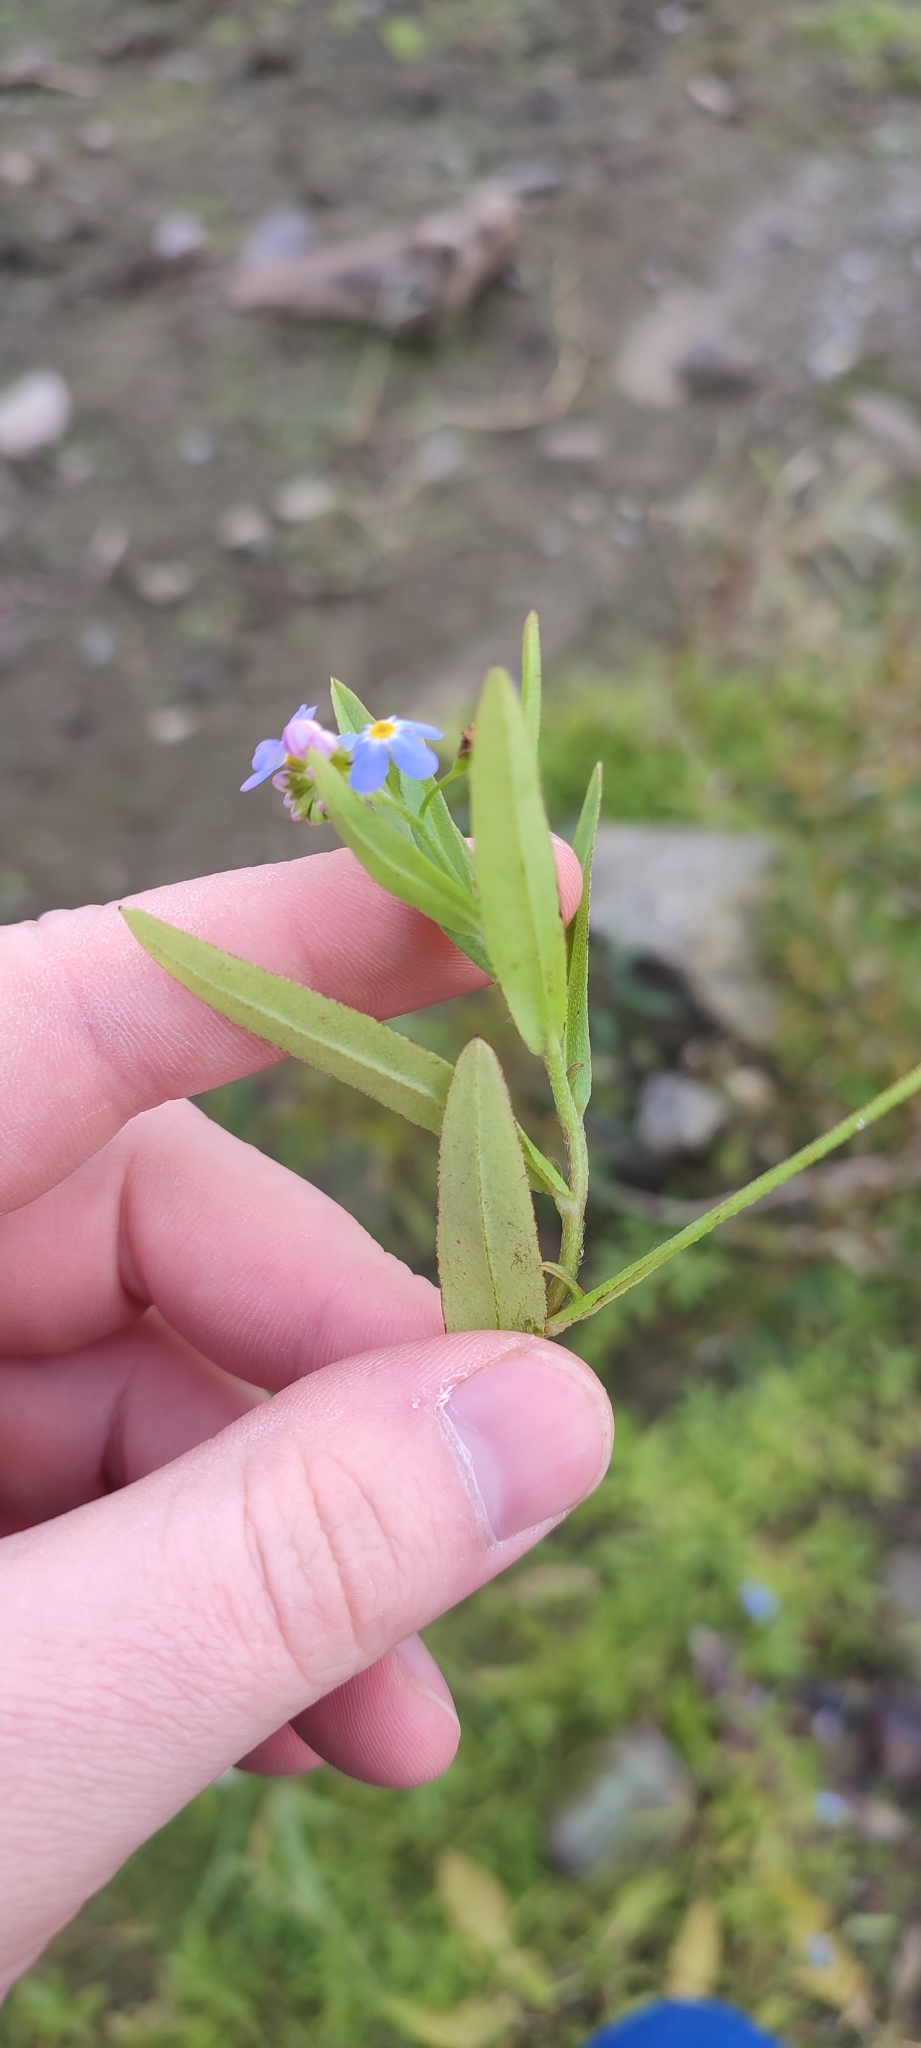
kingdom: Plantae
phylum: Tracheophyta
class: Magnoliopsida
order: Boraginales
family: Boraginaceae
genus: Myosotis
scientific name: Myosotis scorpioides
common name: Water forget-me-not
